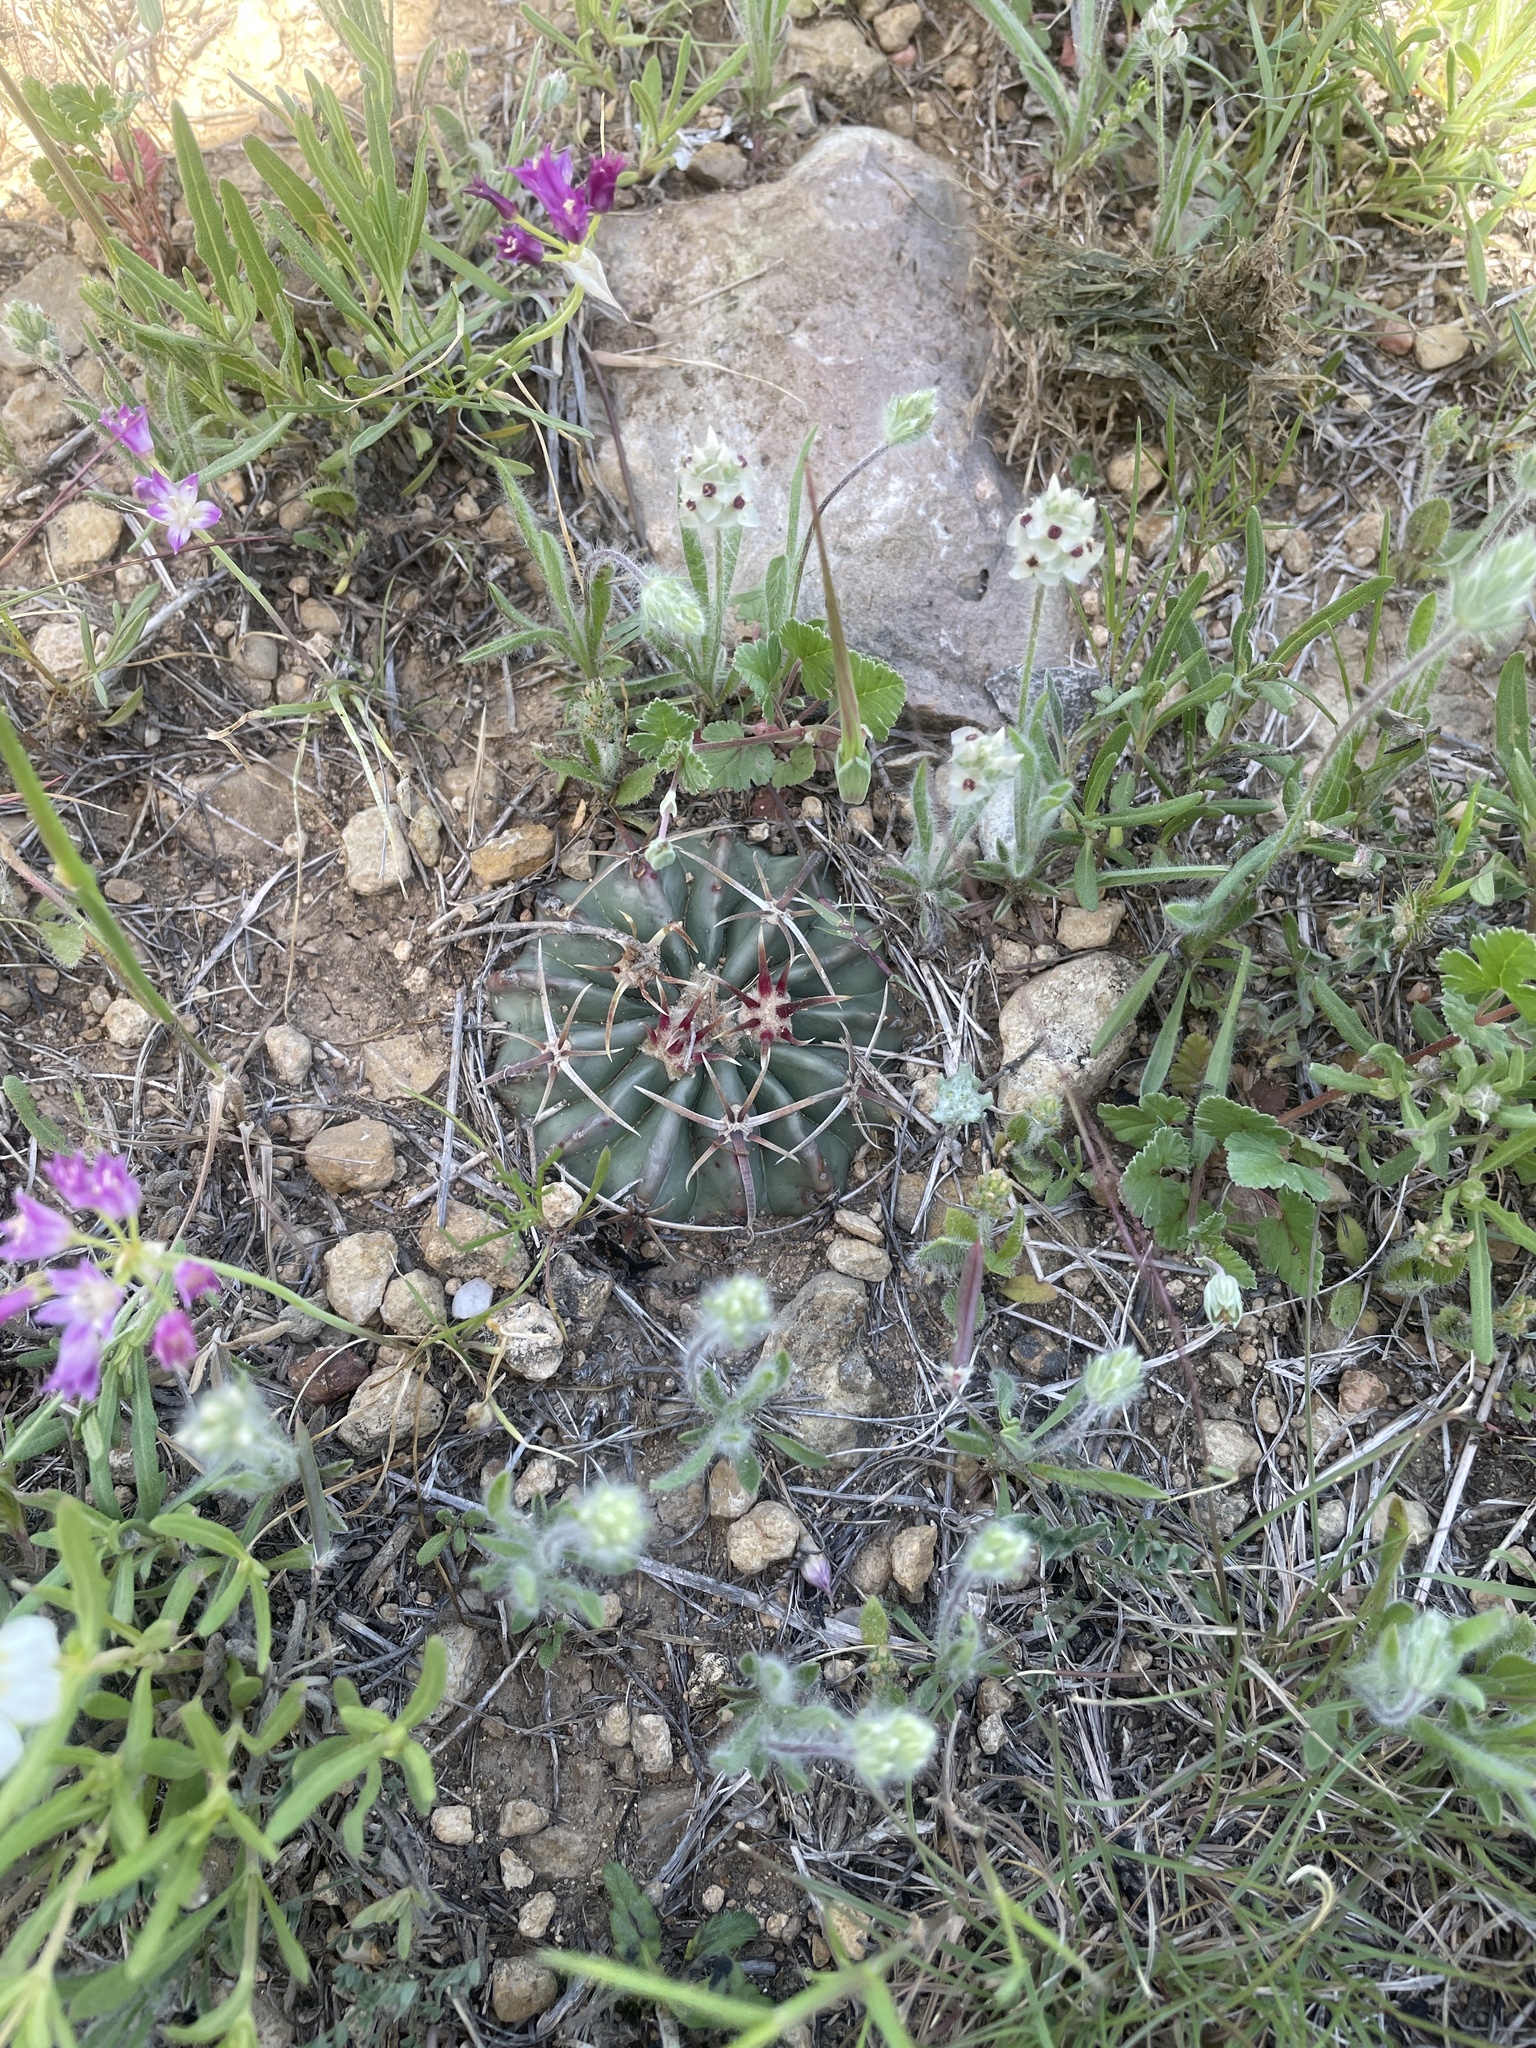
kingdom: Plantae
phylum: Tracheophyta
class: Magnoliopsida
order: Caryophyllales
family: Cactaceae
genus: Echinocactus
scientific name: Echinocactus texensis
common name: Devil's pincushion
